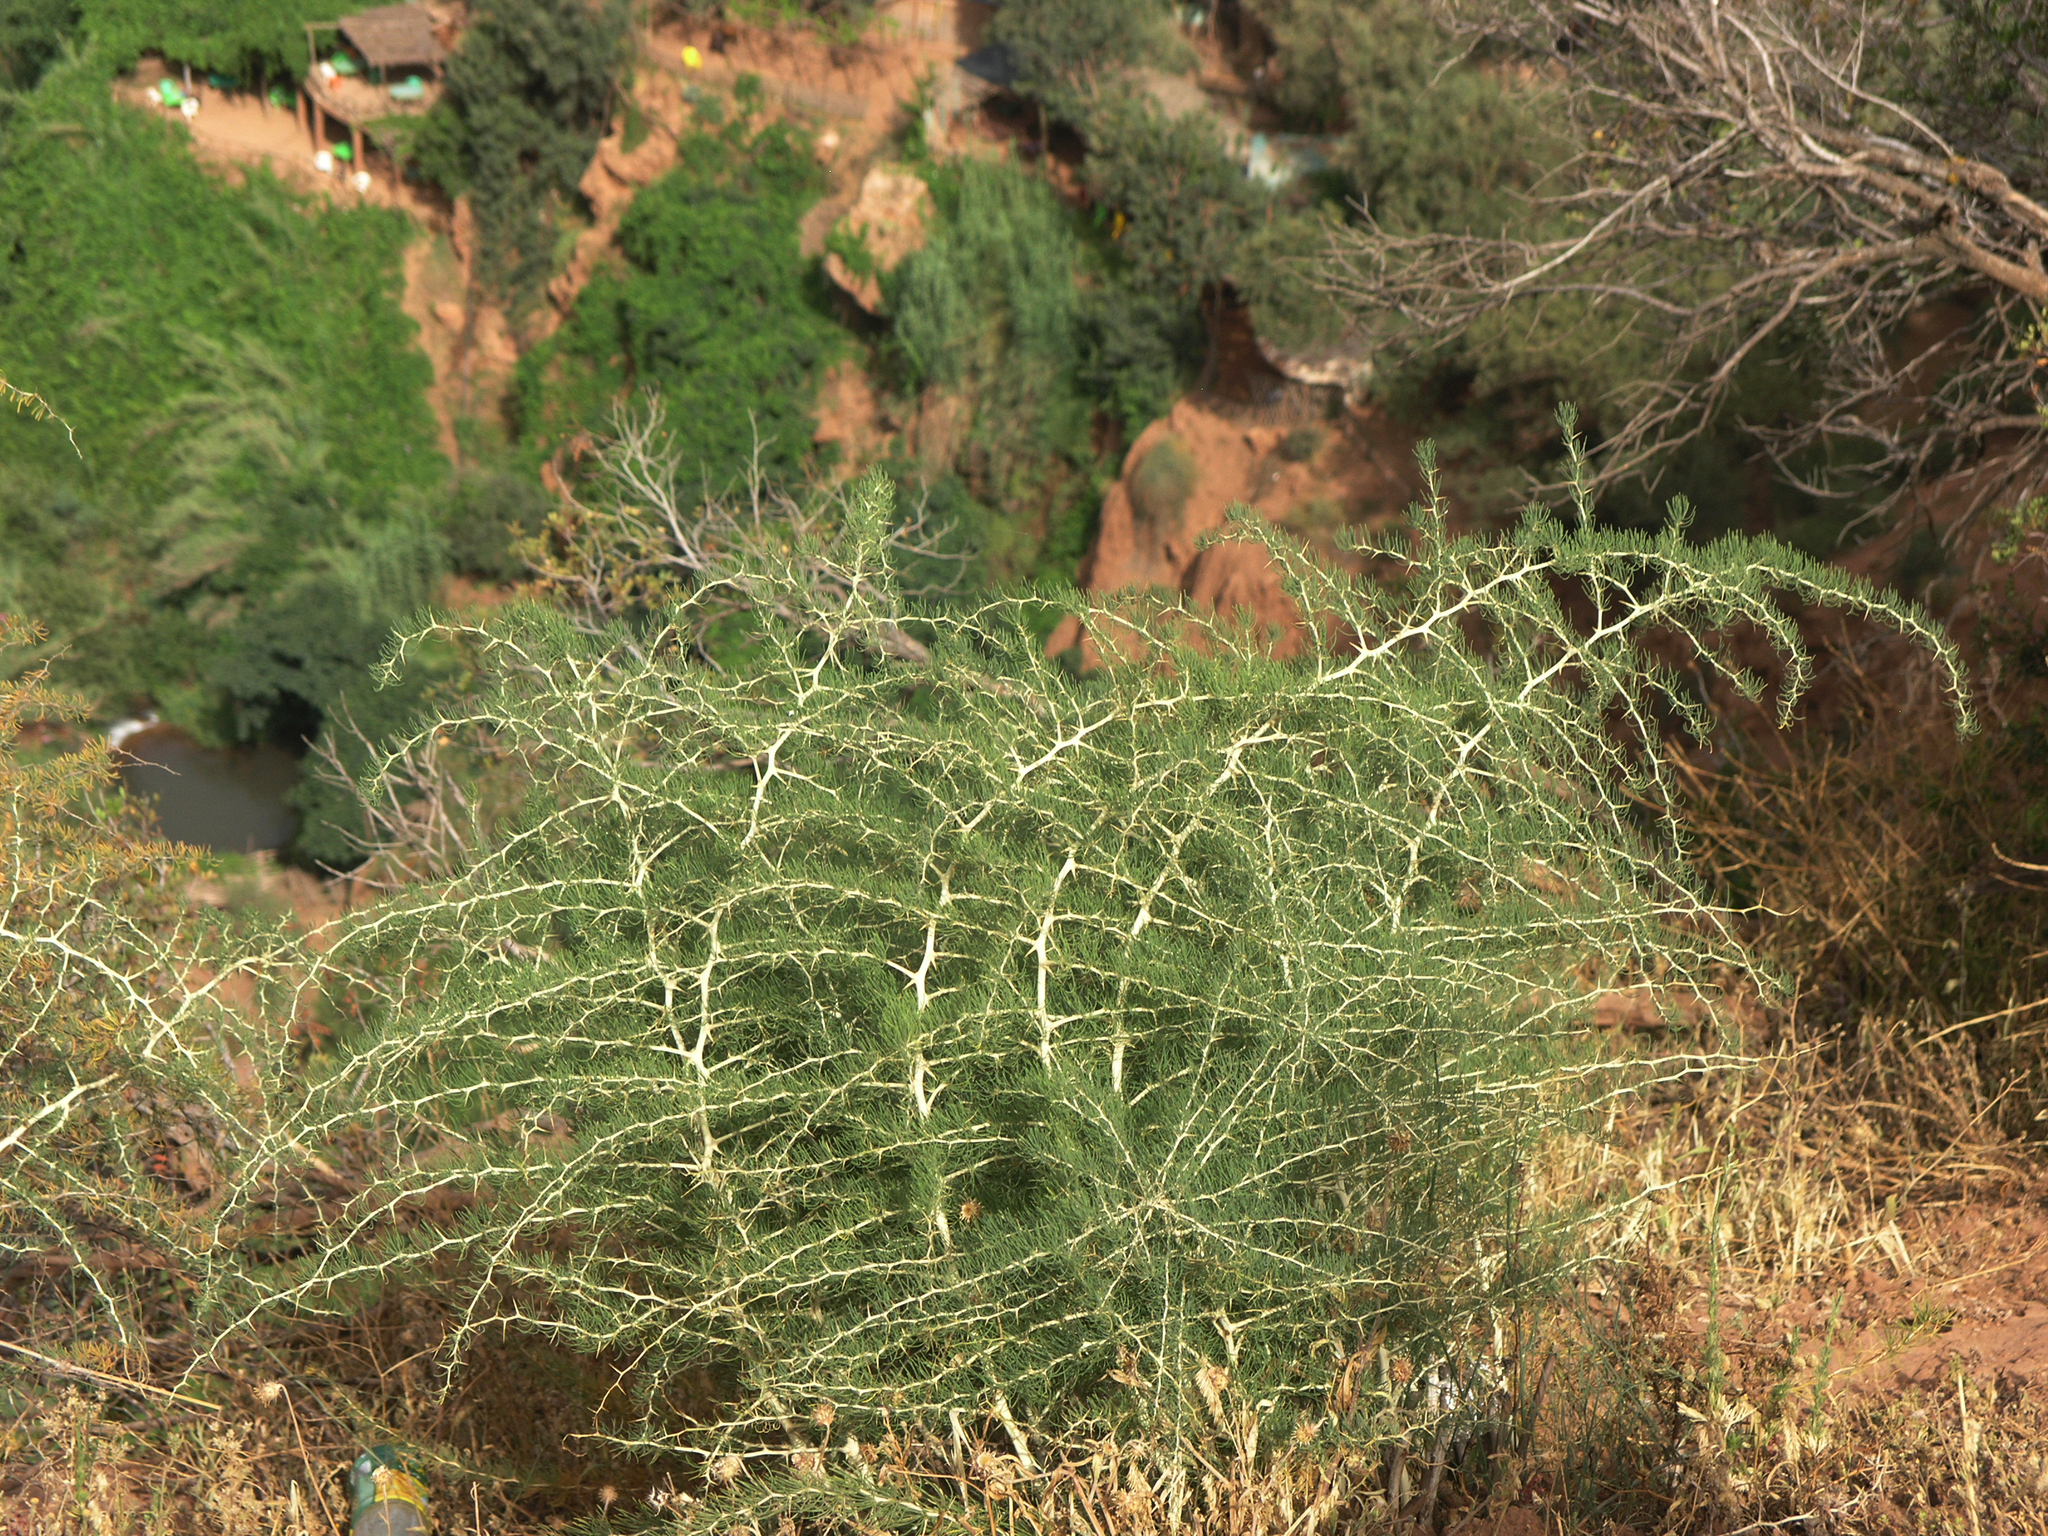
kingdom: Plantae
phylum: Tracheophyta
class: Liliopsida
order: Asparagales
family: Asparagaceae
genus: Asparagus
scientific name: Asparagus albus
